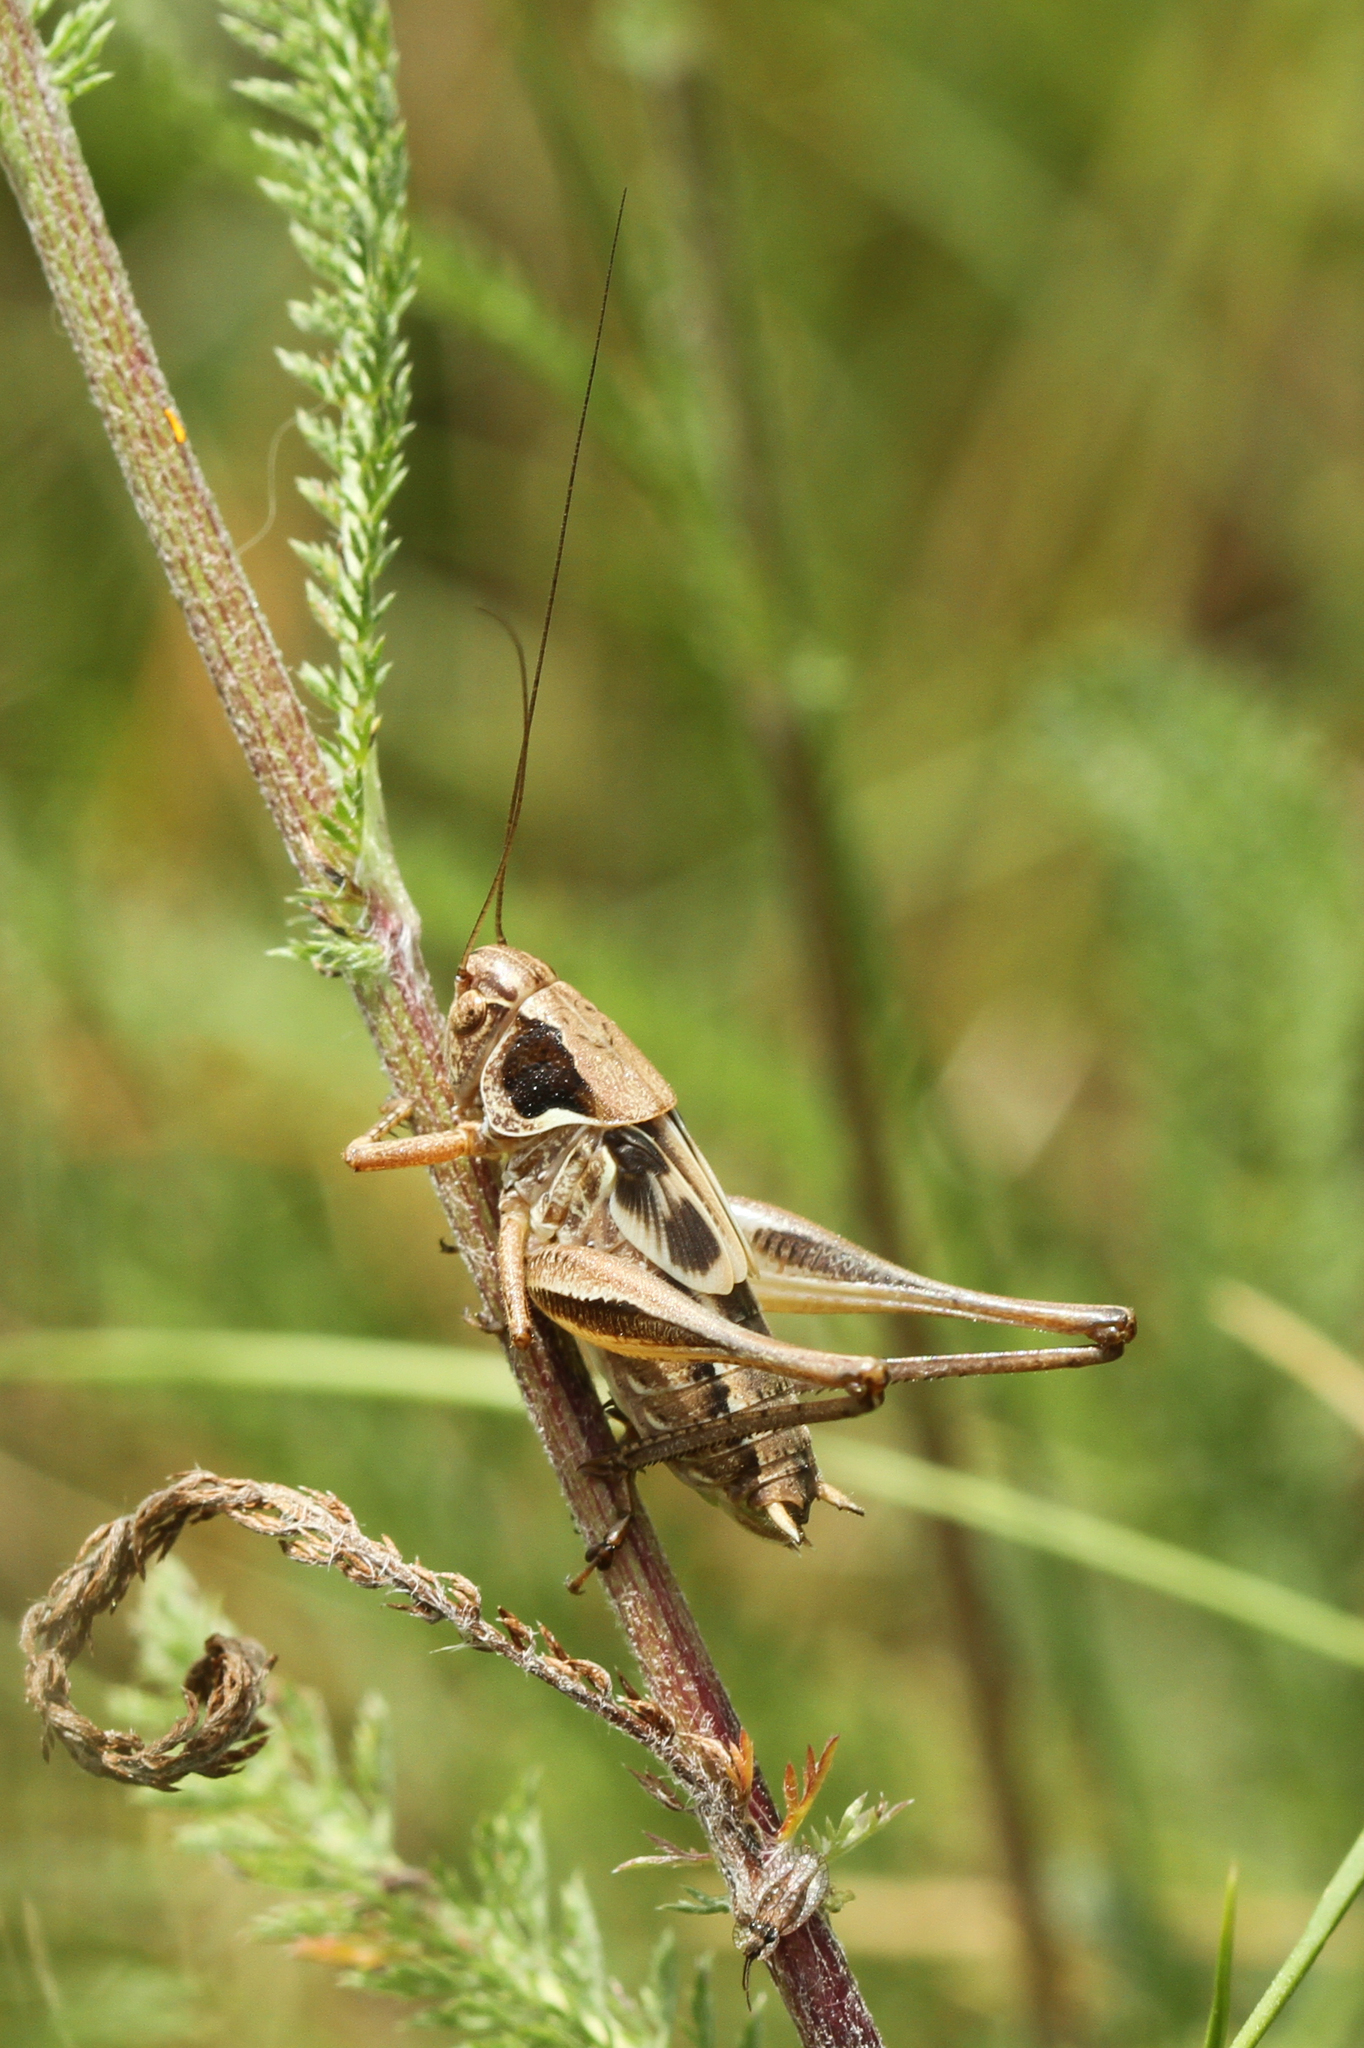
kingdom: Animalia
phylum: Arthropoda
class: Insecta
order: Orthoptera
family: Tettigoniidae
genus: Platycleis
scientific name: Platycleis albopunctata
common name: Grey bush-cricket
